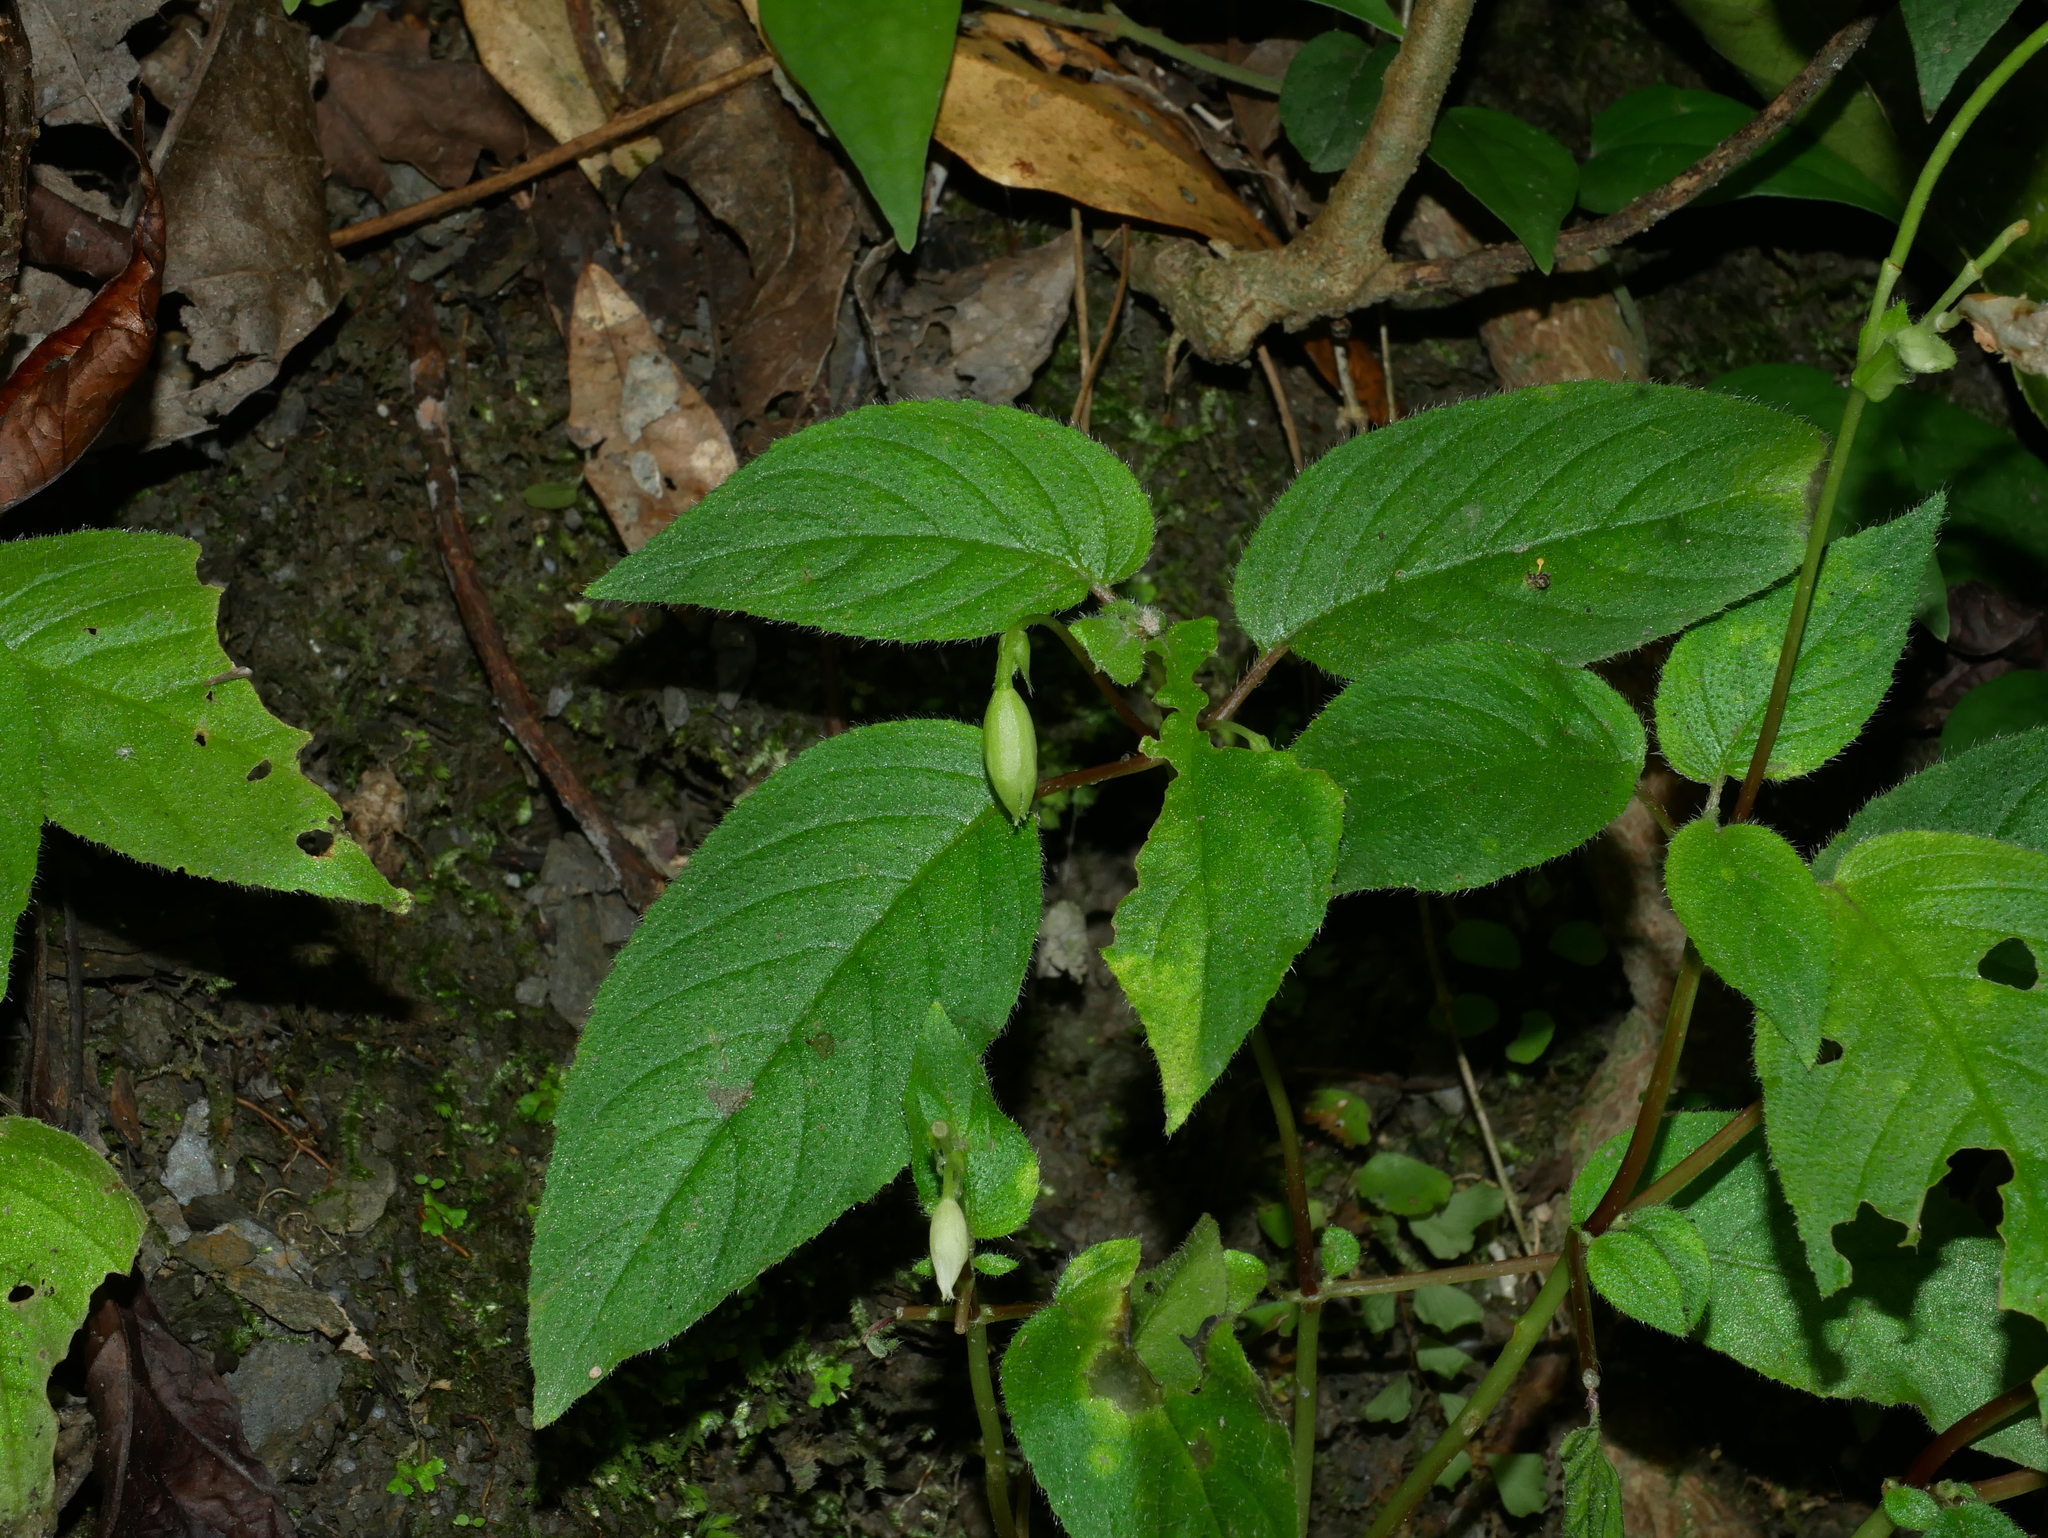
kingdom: Plantae
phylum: Tracheophyta
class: Magnoliopsida
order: Lamiales
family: Gesneriaceae
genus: Henckelia
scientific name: Henckelia anachoreta
